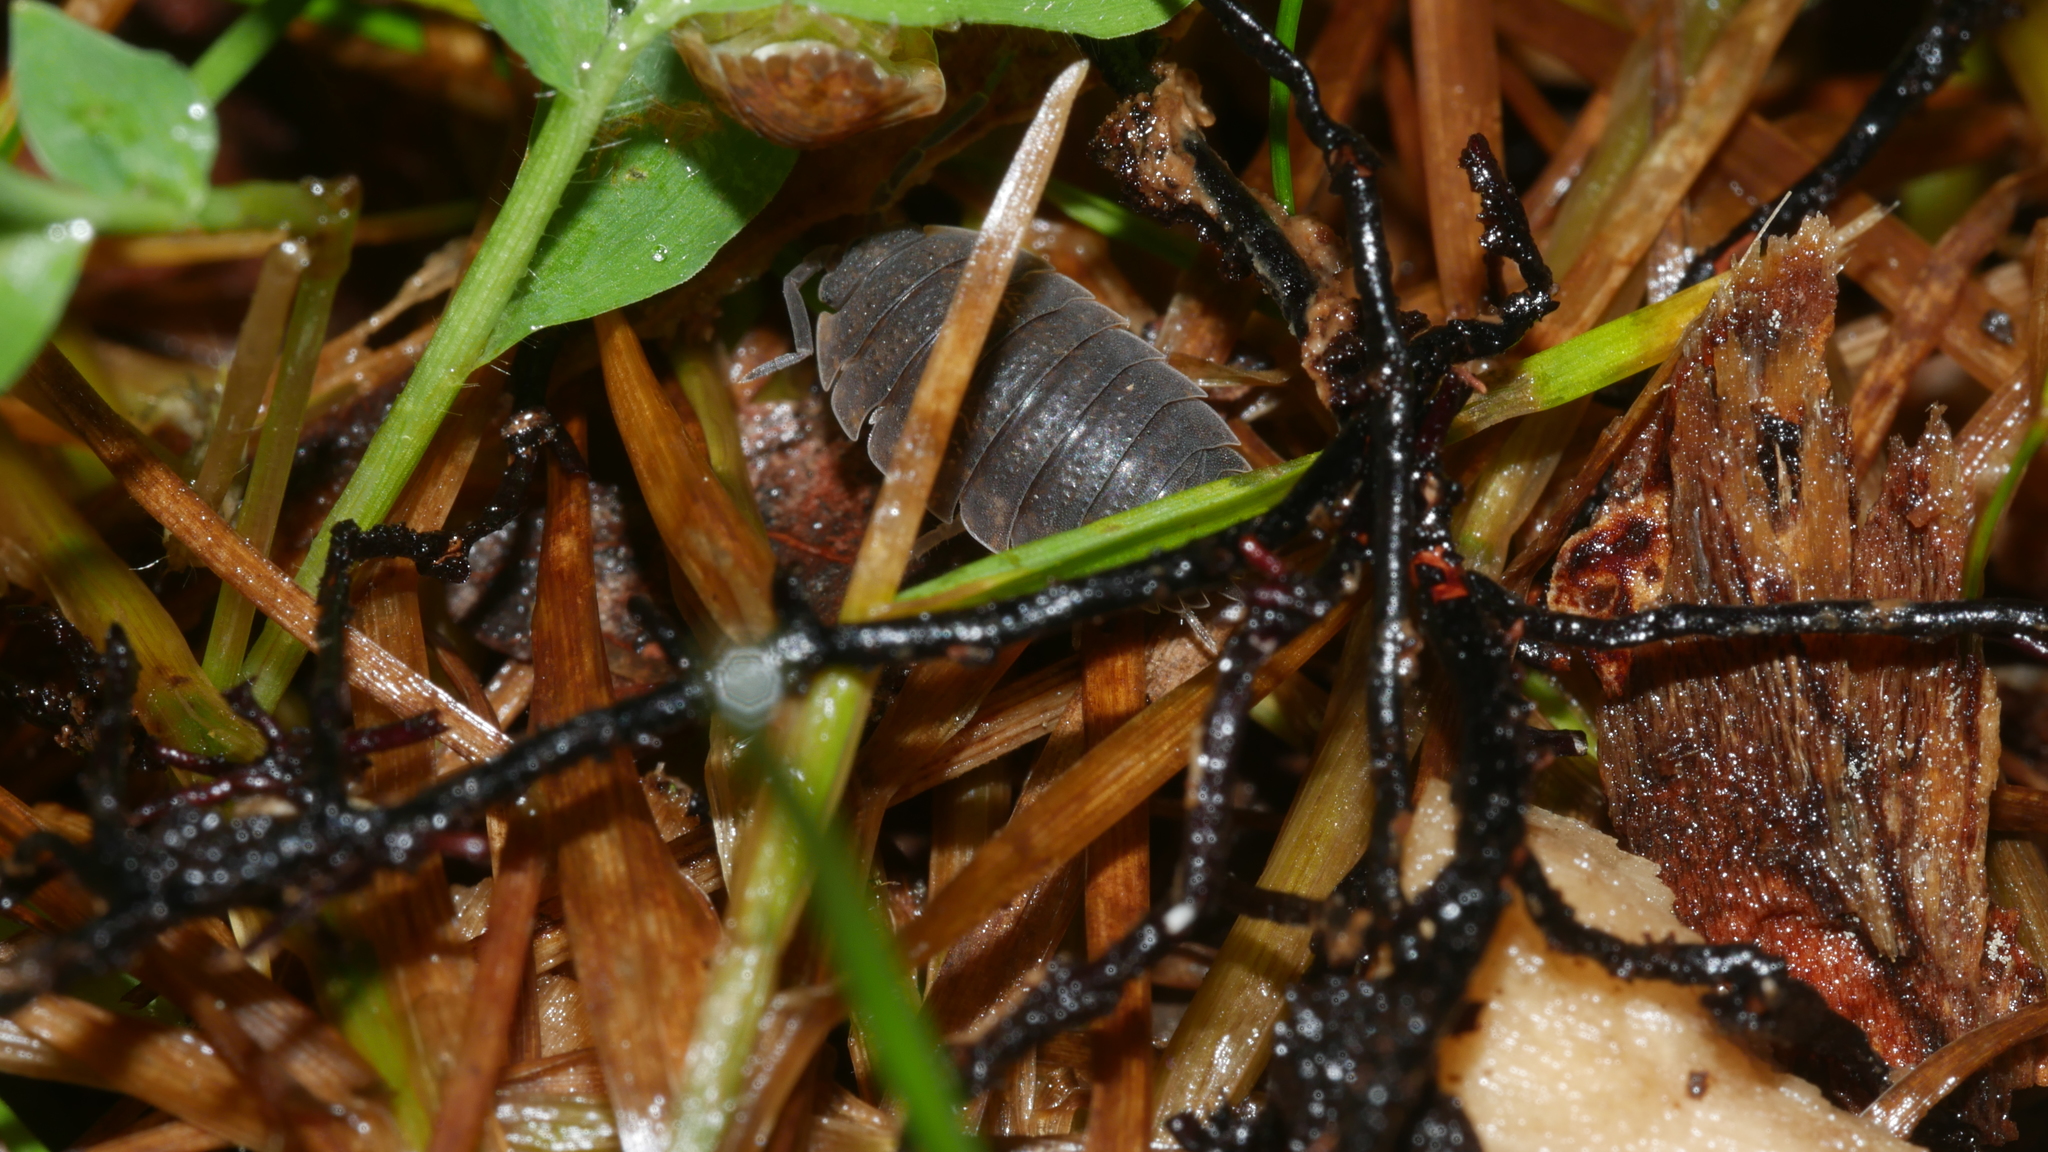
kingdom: Animalia
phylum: Arthropoda
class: Malacostraca
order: Isopoda
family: Porcellionidae
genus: Porcellio
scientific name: Porcellio scaber
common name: Common rough woodlouse
